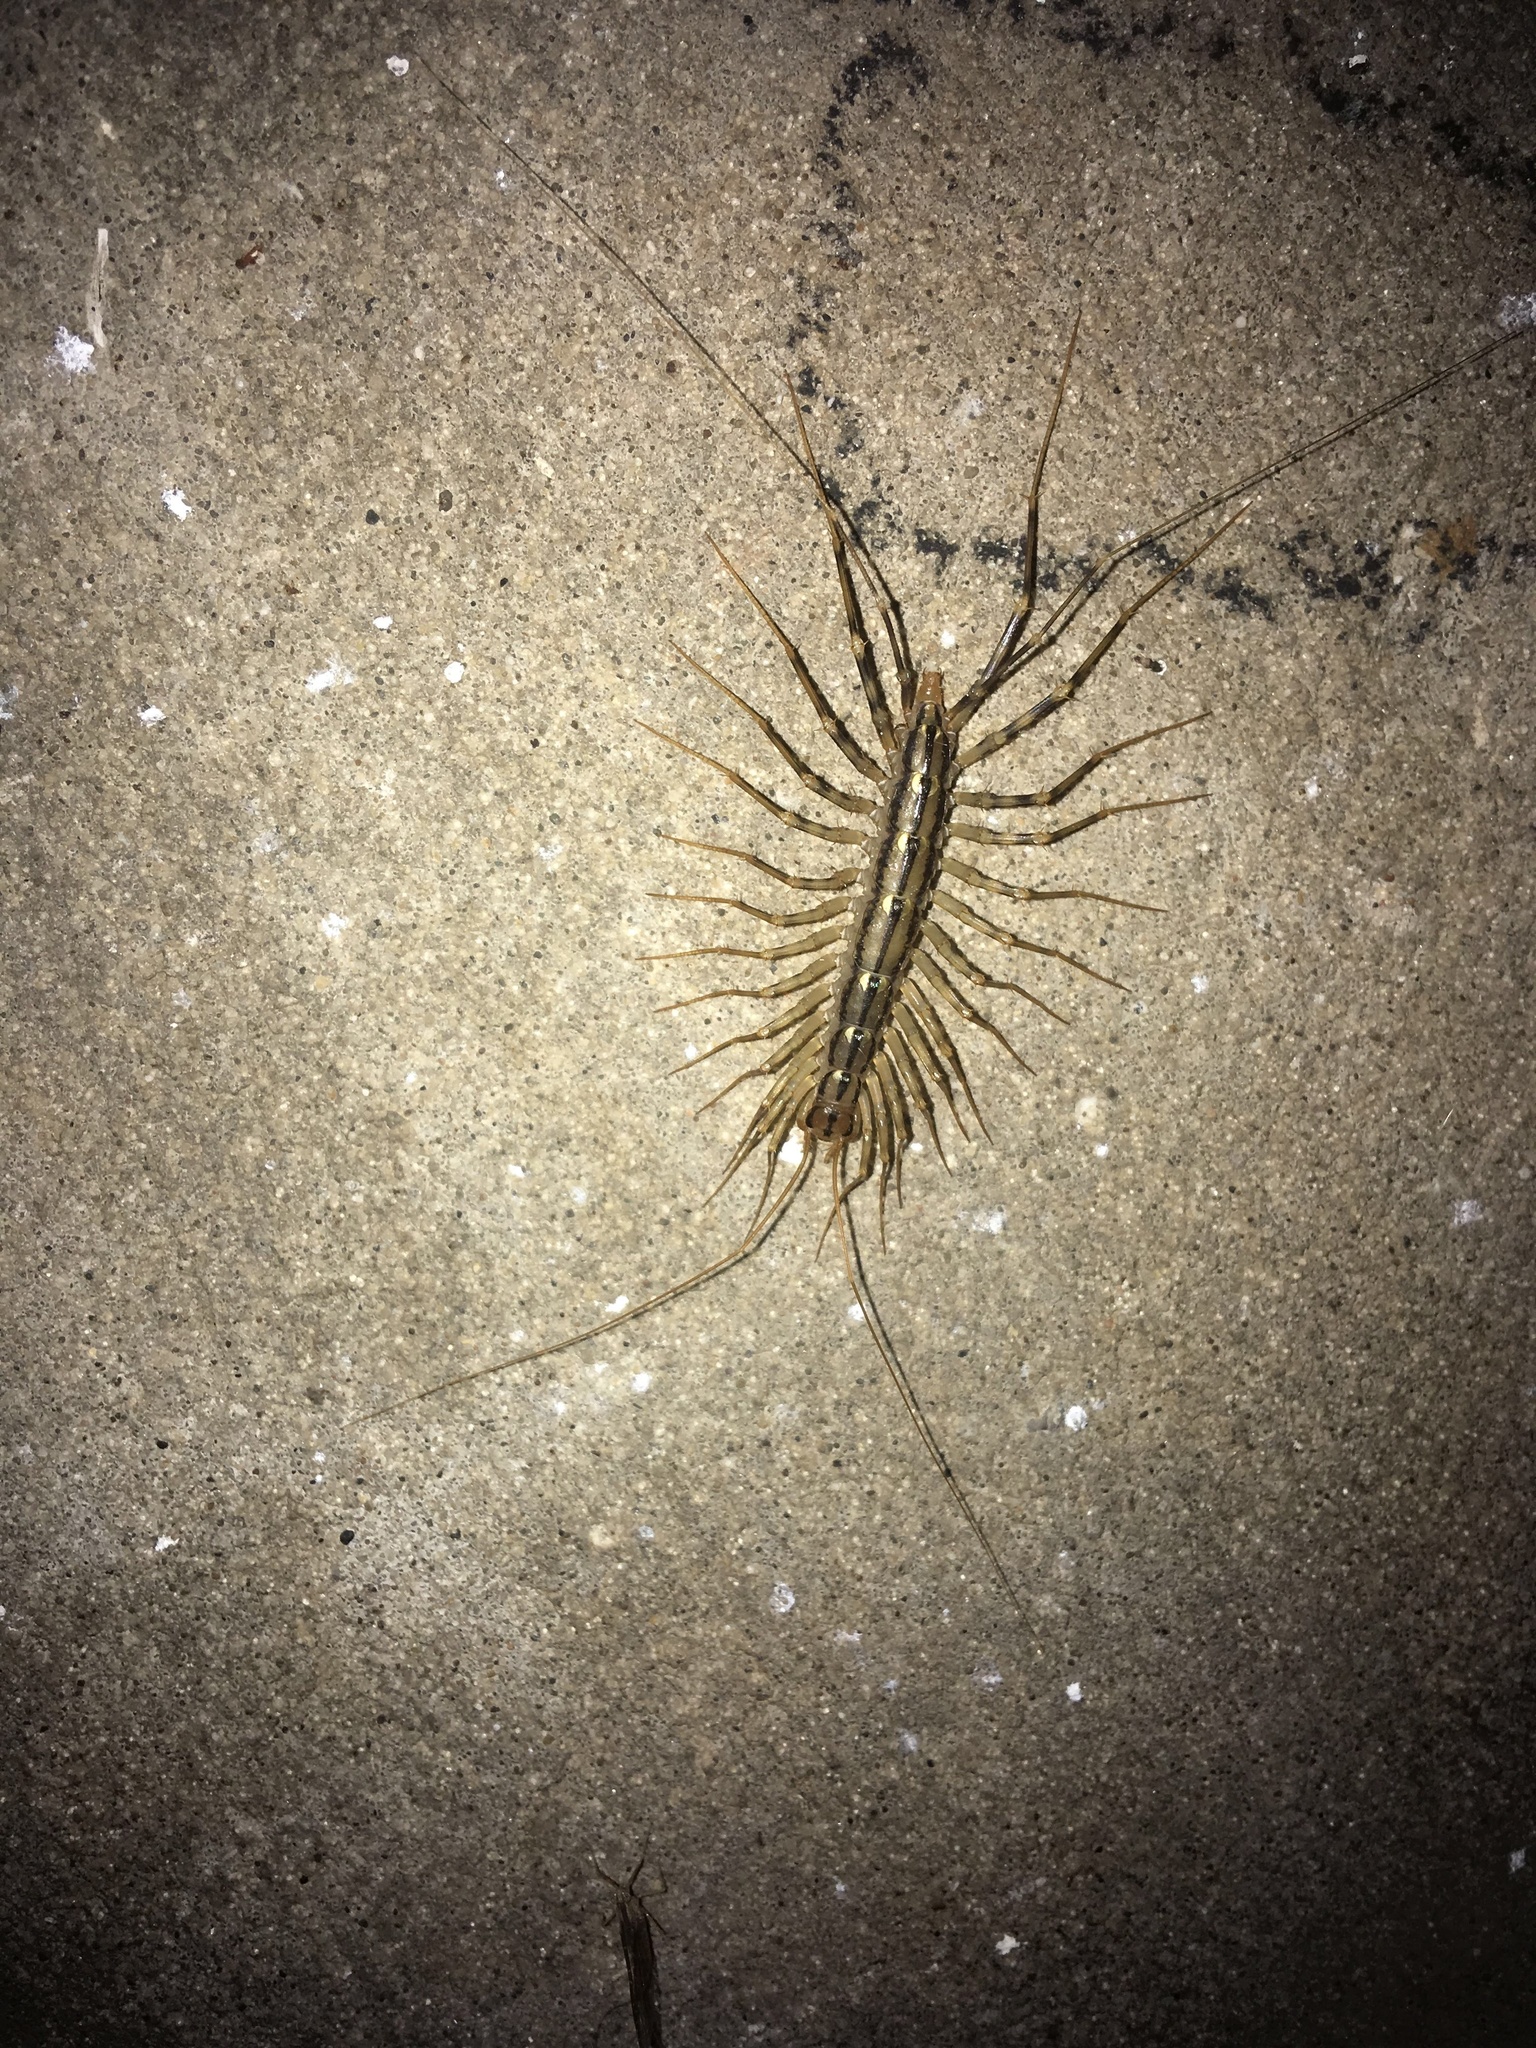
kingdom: Animalia
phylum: Arthropoda
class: Chilopoda
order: Scutigeromorpha
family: Scutigeridae
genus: Scutigera
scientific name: Scutigera coleoptrata
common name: House centipede
